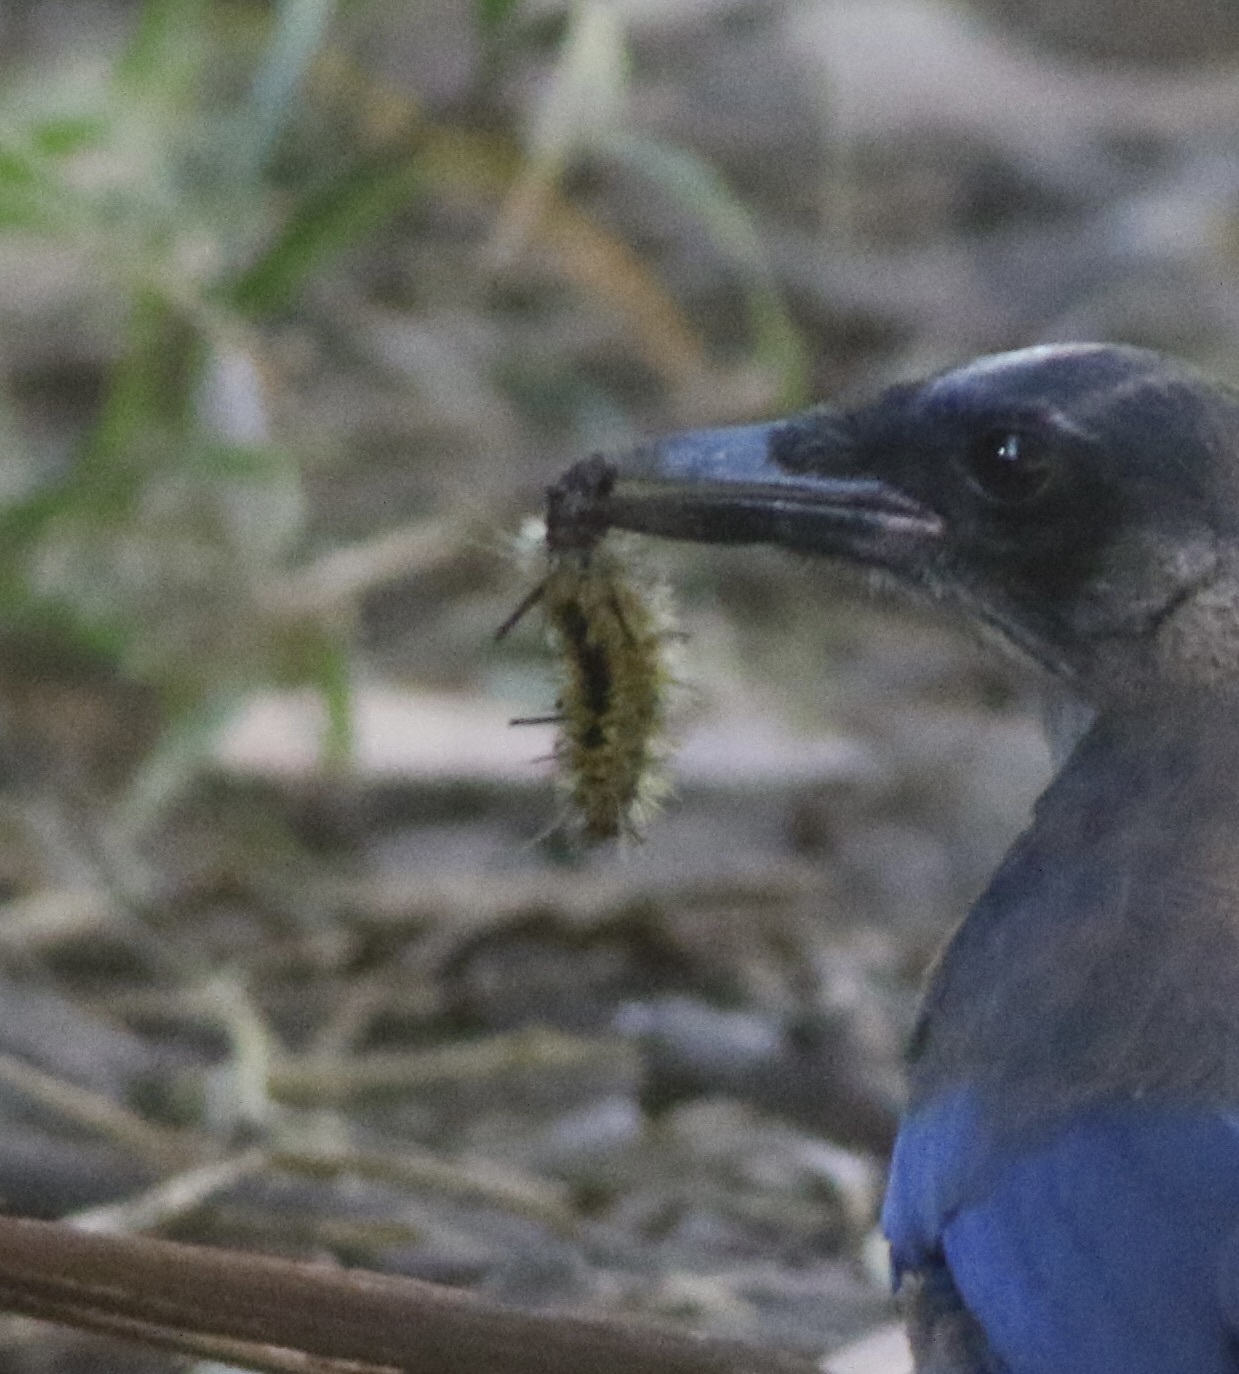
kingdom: Animalia
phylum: Arthropoda
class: Insecta
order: Lepidoptera
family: Erebidae
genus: Lophocampa
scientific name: Lophocampa indistincta
